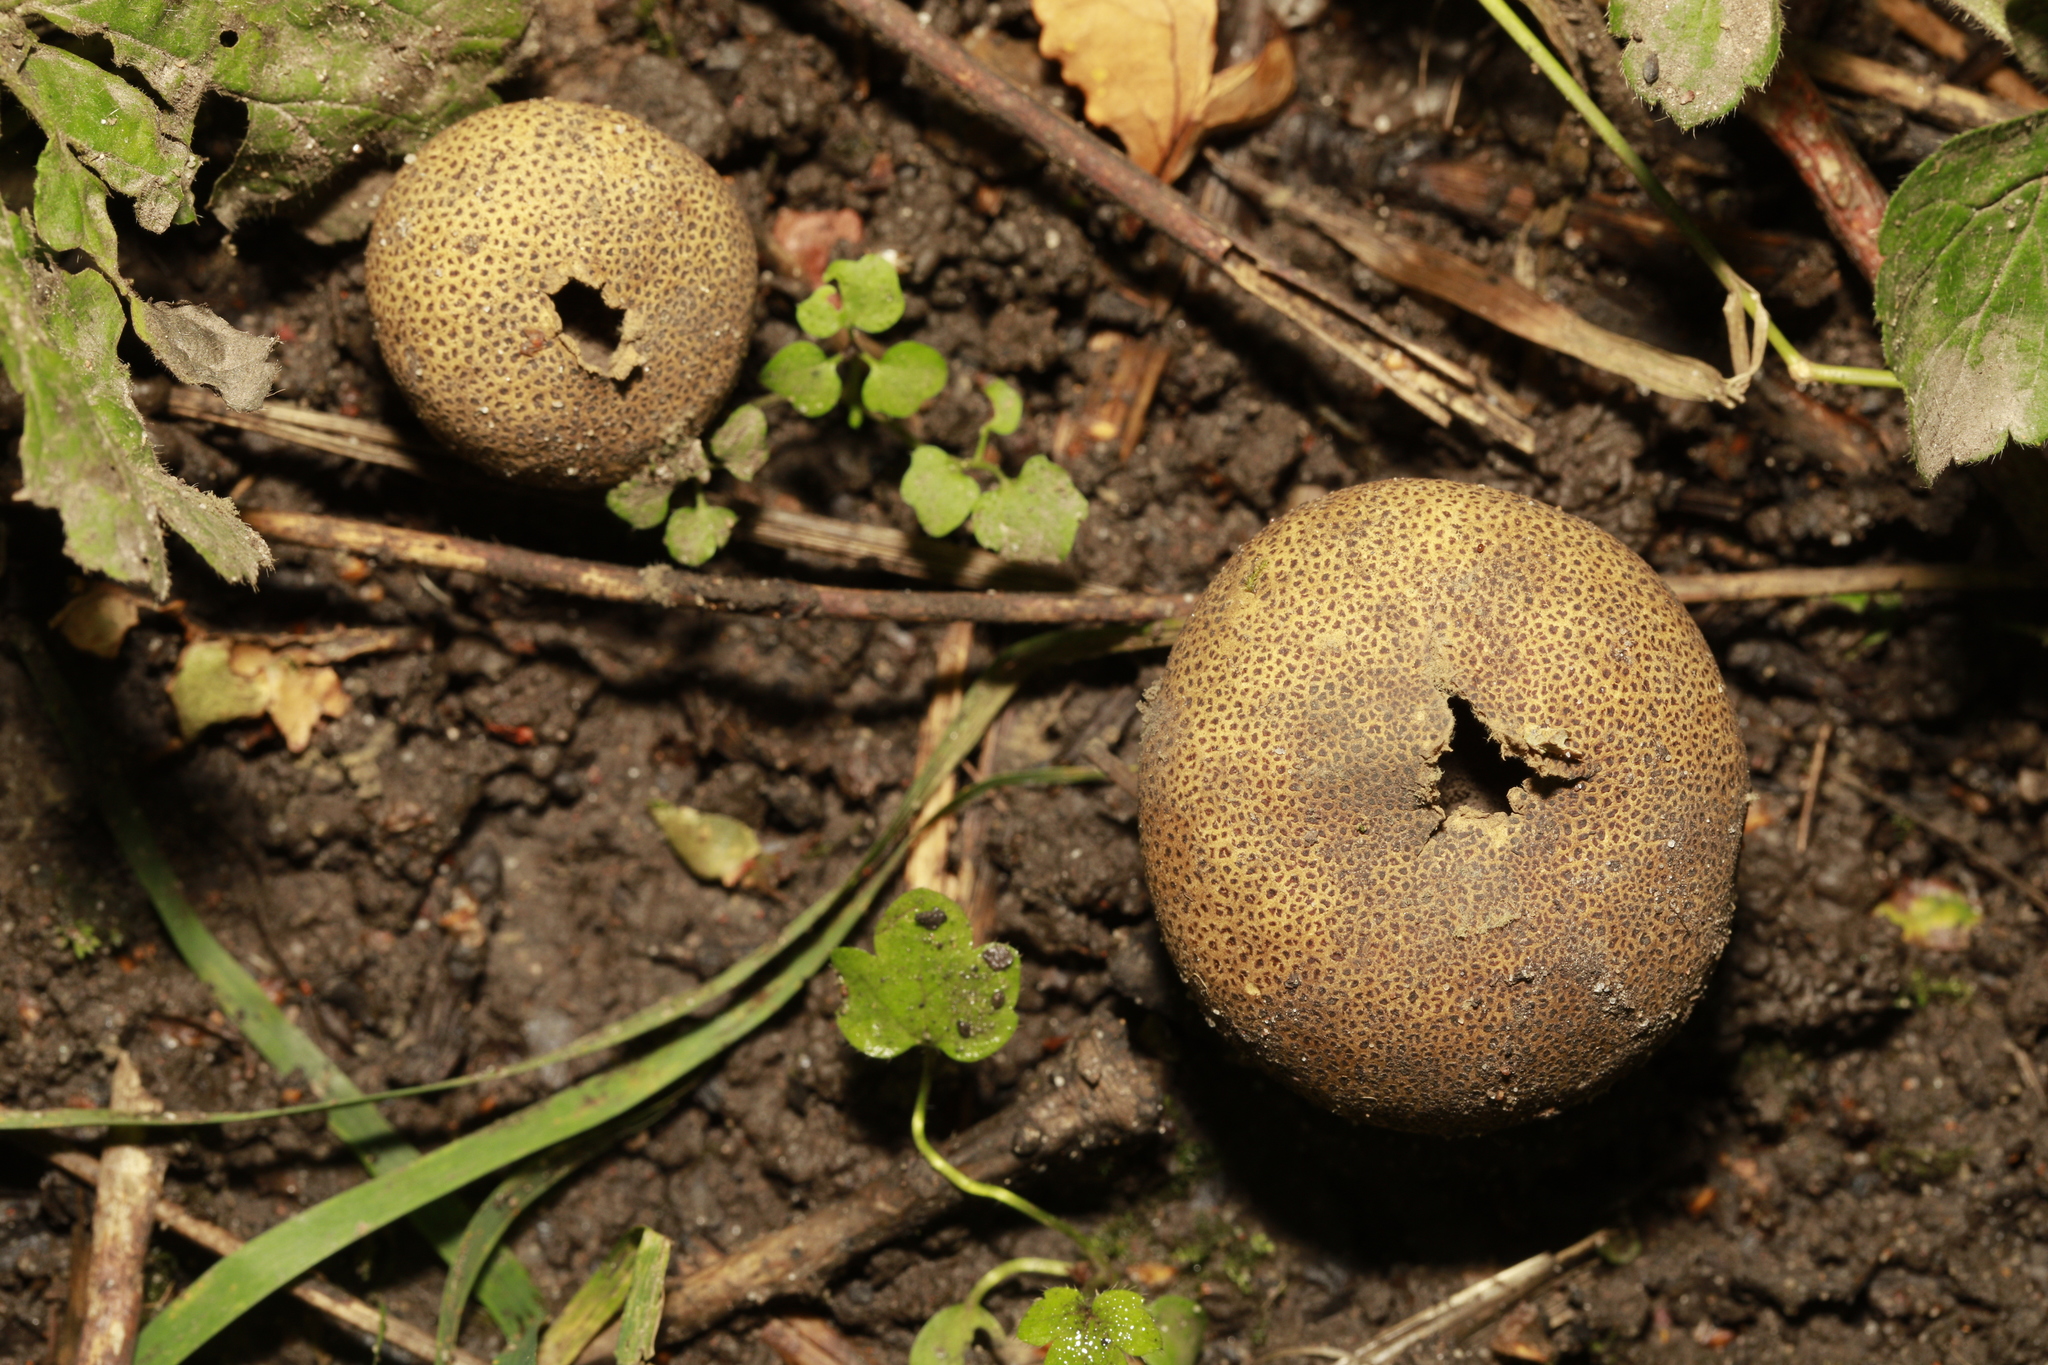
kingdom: Fungi
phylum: Basidiomycota
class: Agaricomycetes
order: Boletales
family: Sclerodermataceae
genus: Scleroderma
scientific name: Scleroderma citrinum
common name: Common earthball
